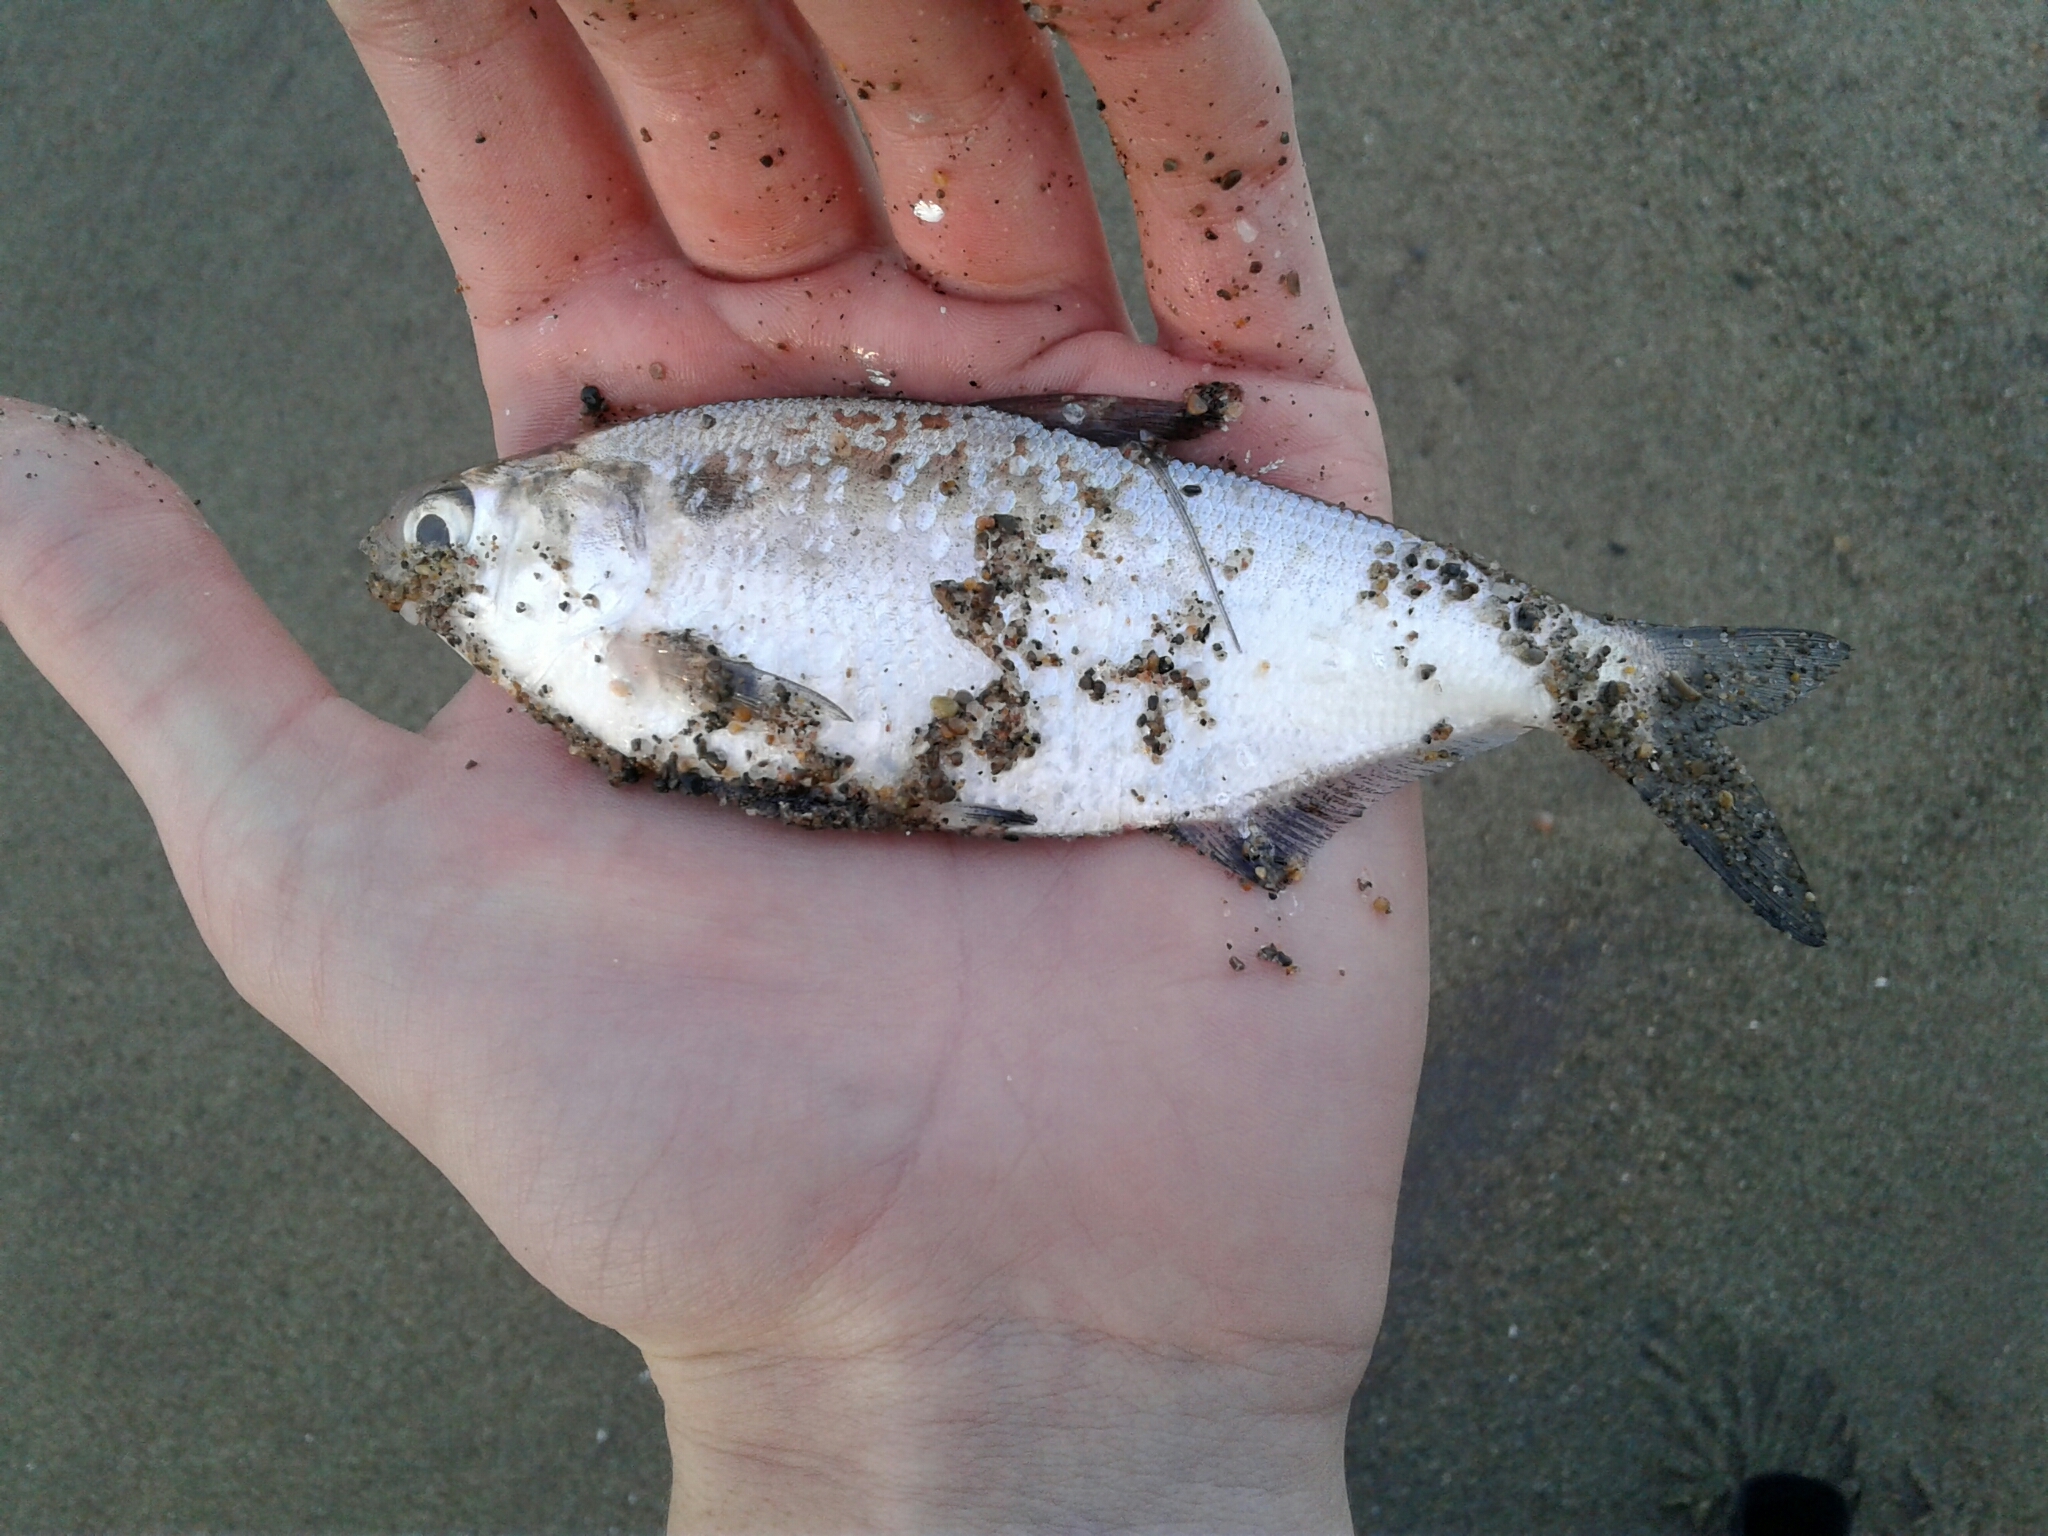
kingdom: Animalia
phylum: Chordata
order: Clupeiformes
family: Clupeidae
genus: Dorosoma
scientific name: Dorosoma cepedianum
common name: Gizzard shad
